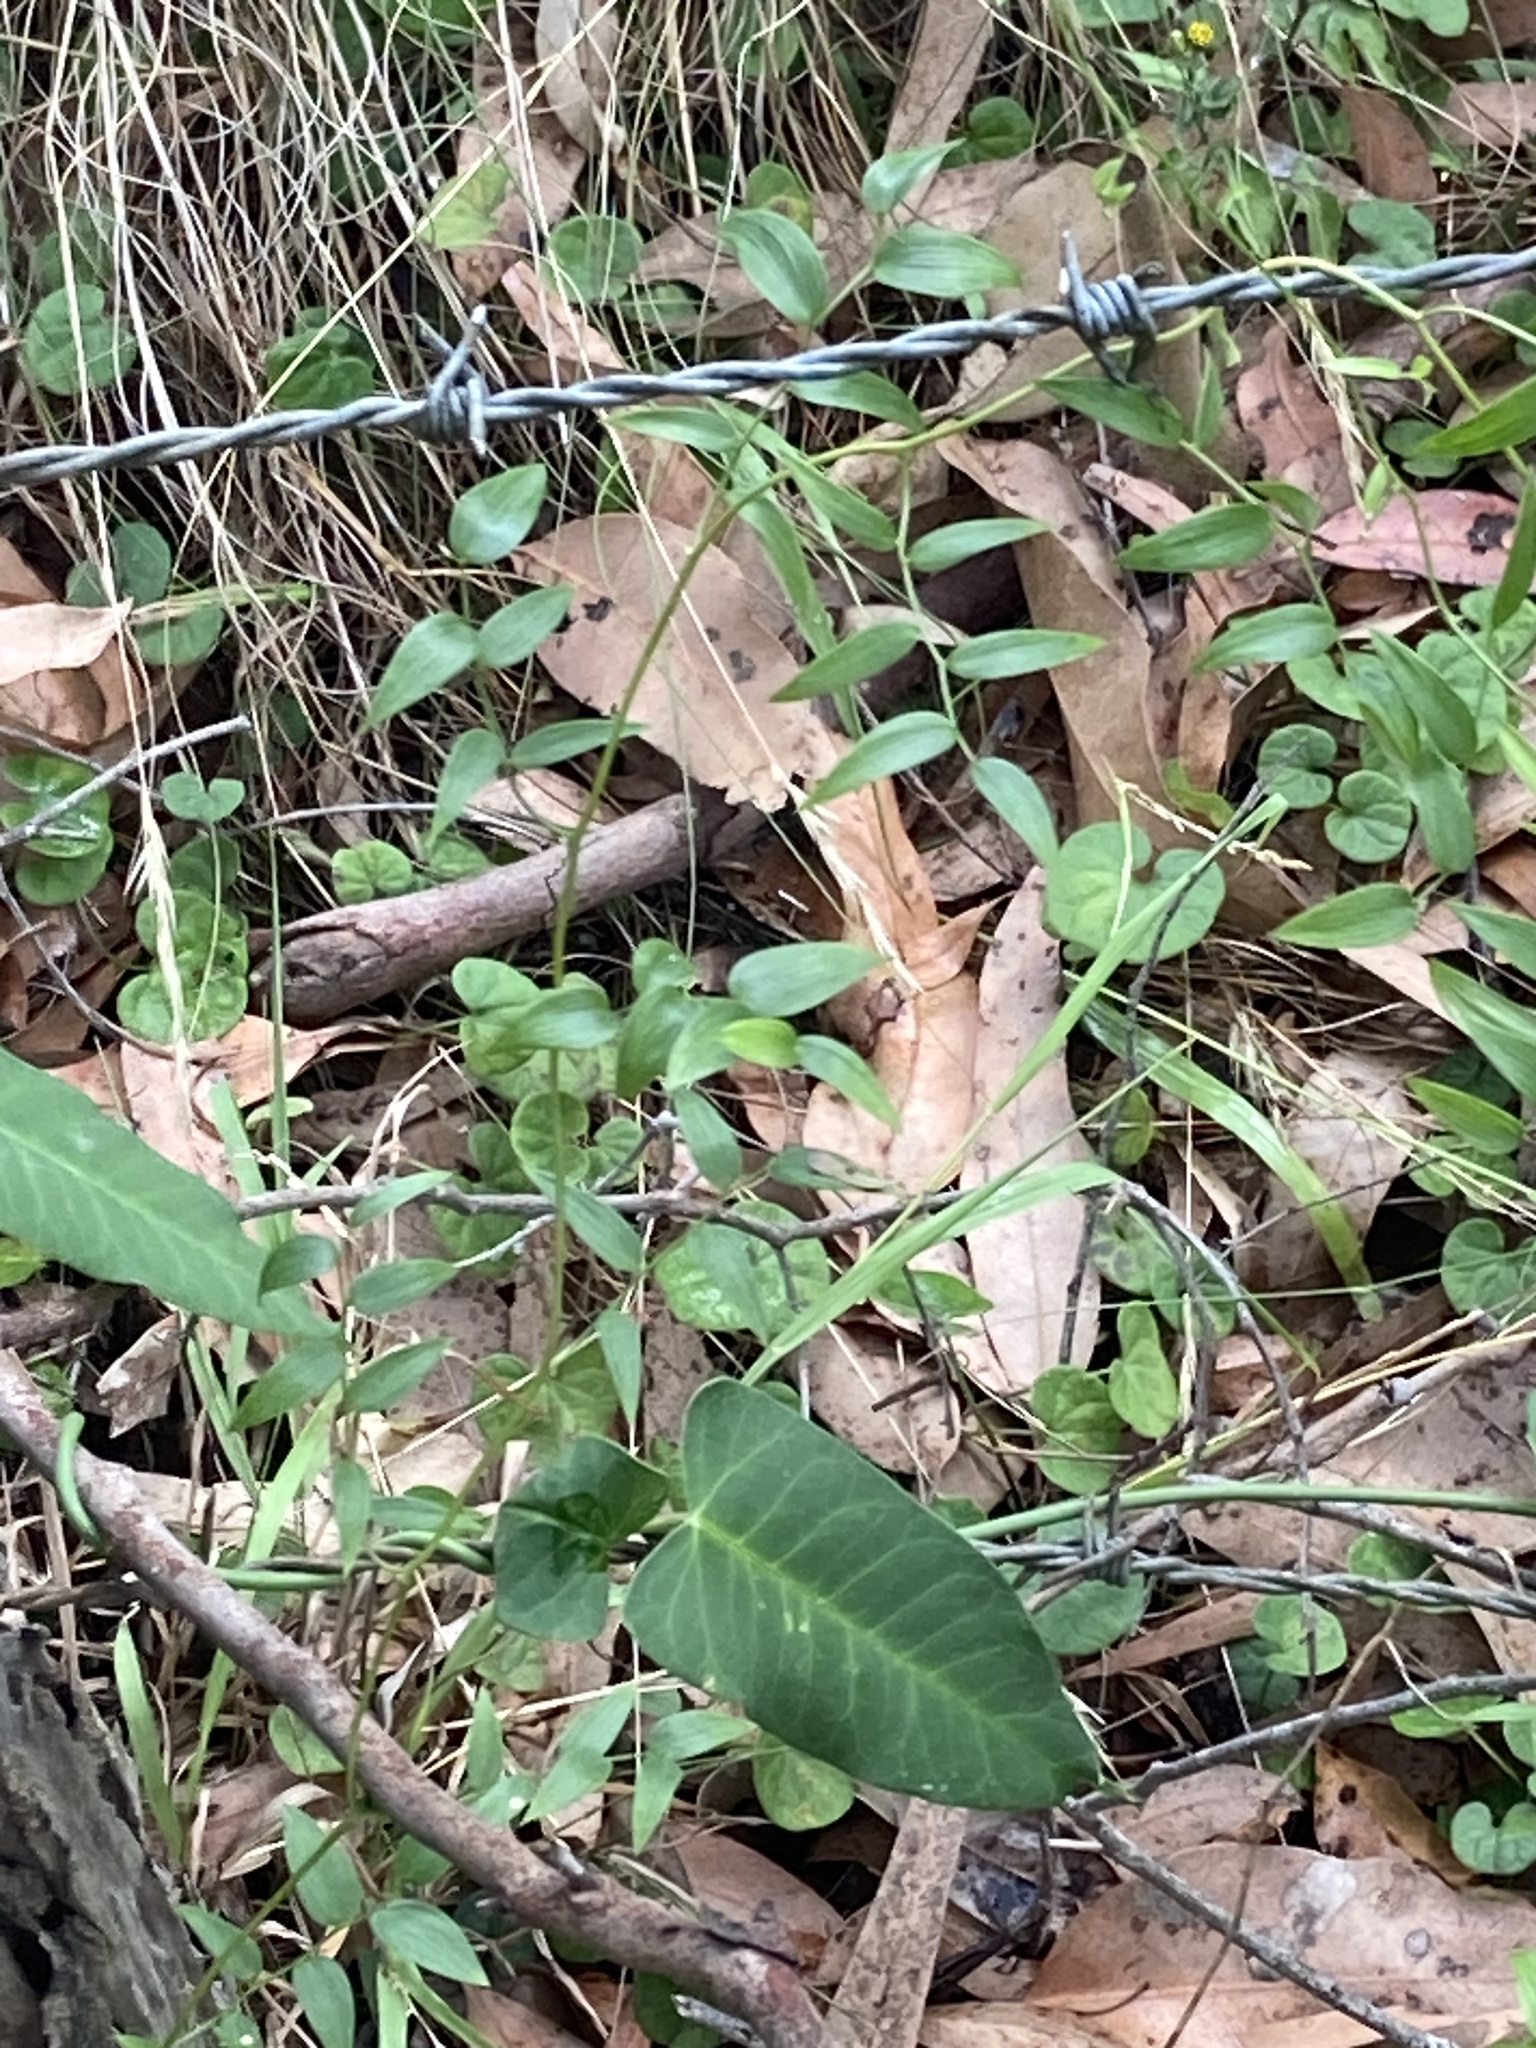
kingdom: Plantae
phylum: Tracheophyta
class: Magnoliopsida
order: Gentianales
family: Apocynaceae
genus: Araujia
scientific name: Araujia sericifera
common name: White bladderflower
